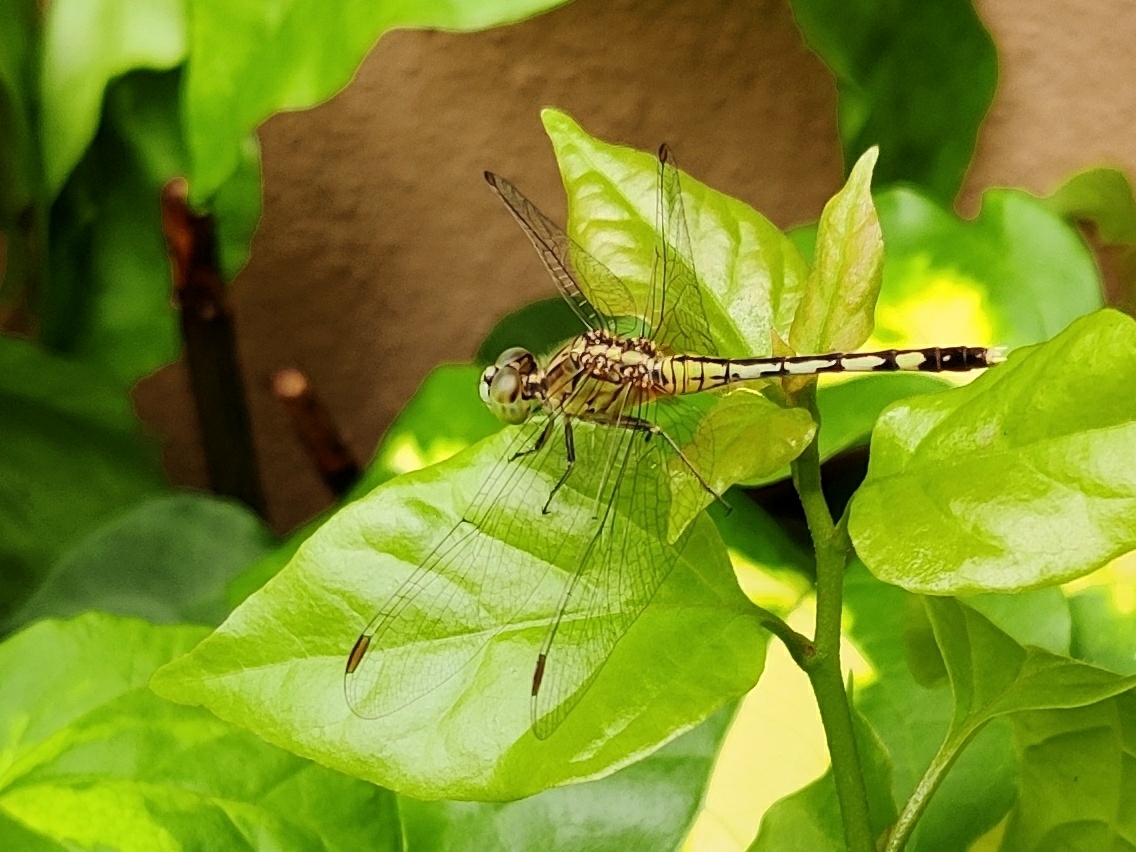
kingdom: Animalia
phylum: Arthropoda
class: Insecta
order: Odonata
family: Libellulidae
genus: Diplacodes
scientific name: Diplacodes trivialis
